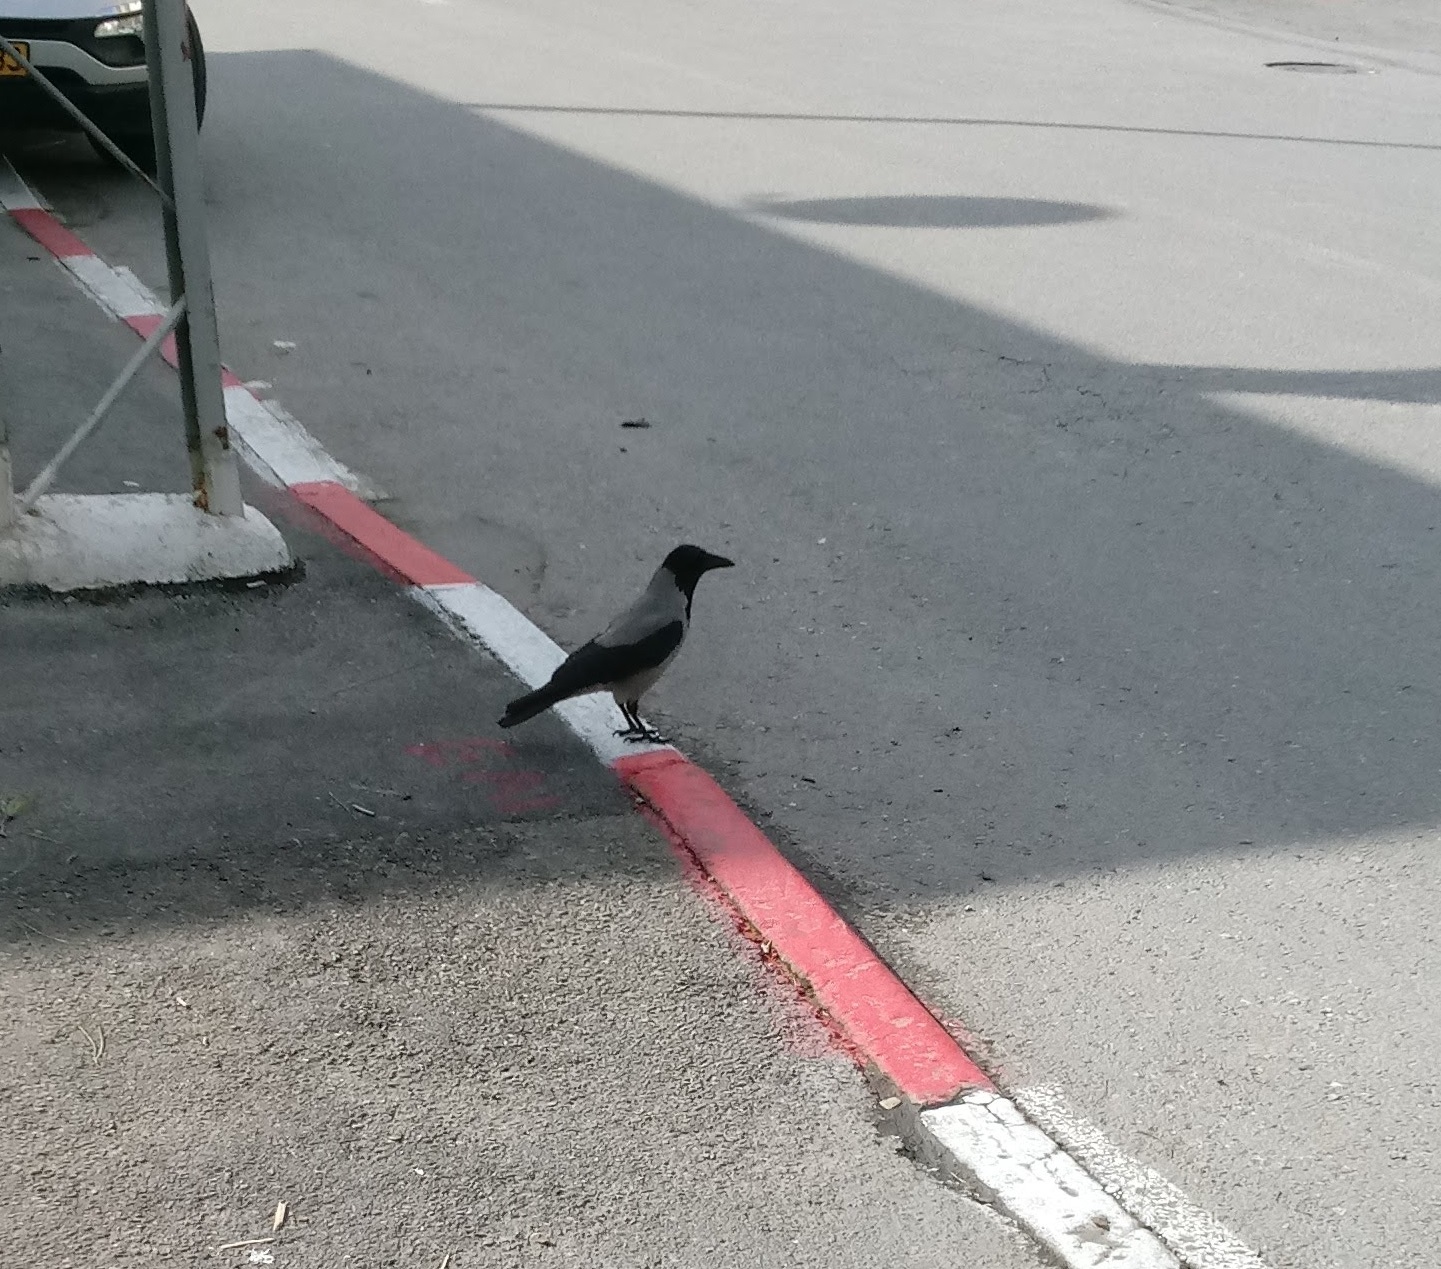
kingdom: Animalia
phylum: Chordata
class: Aves
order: Passeriformes
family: Corvidae
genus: Corvus
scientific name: Corvus cornix
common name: Hooded crow
